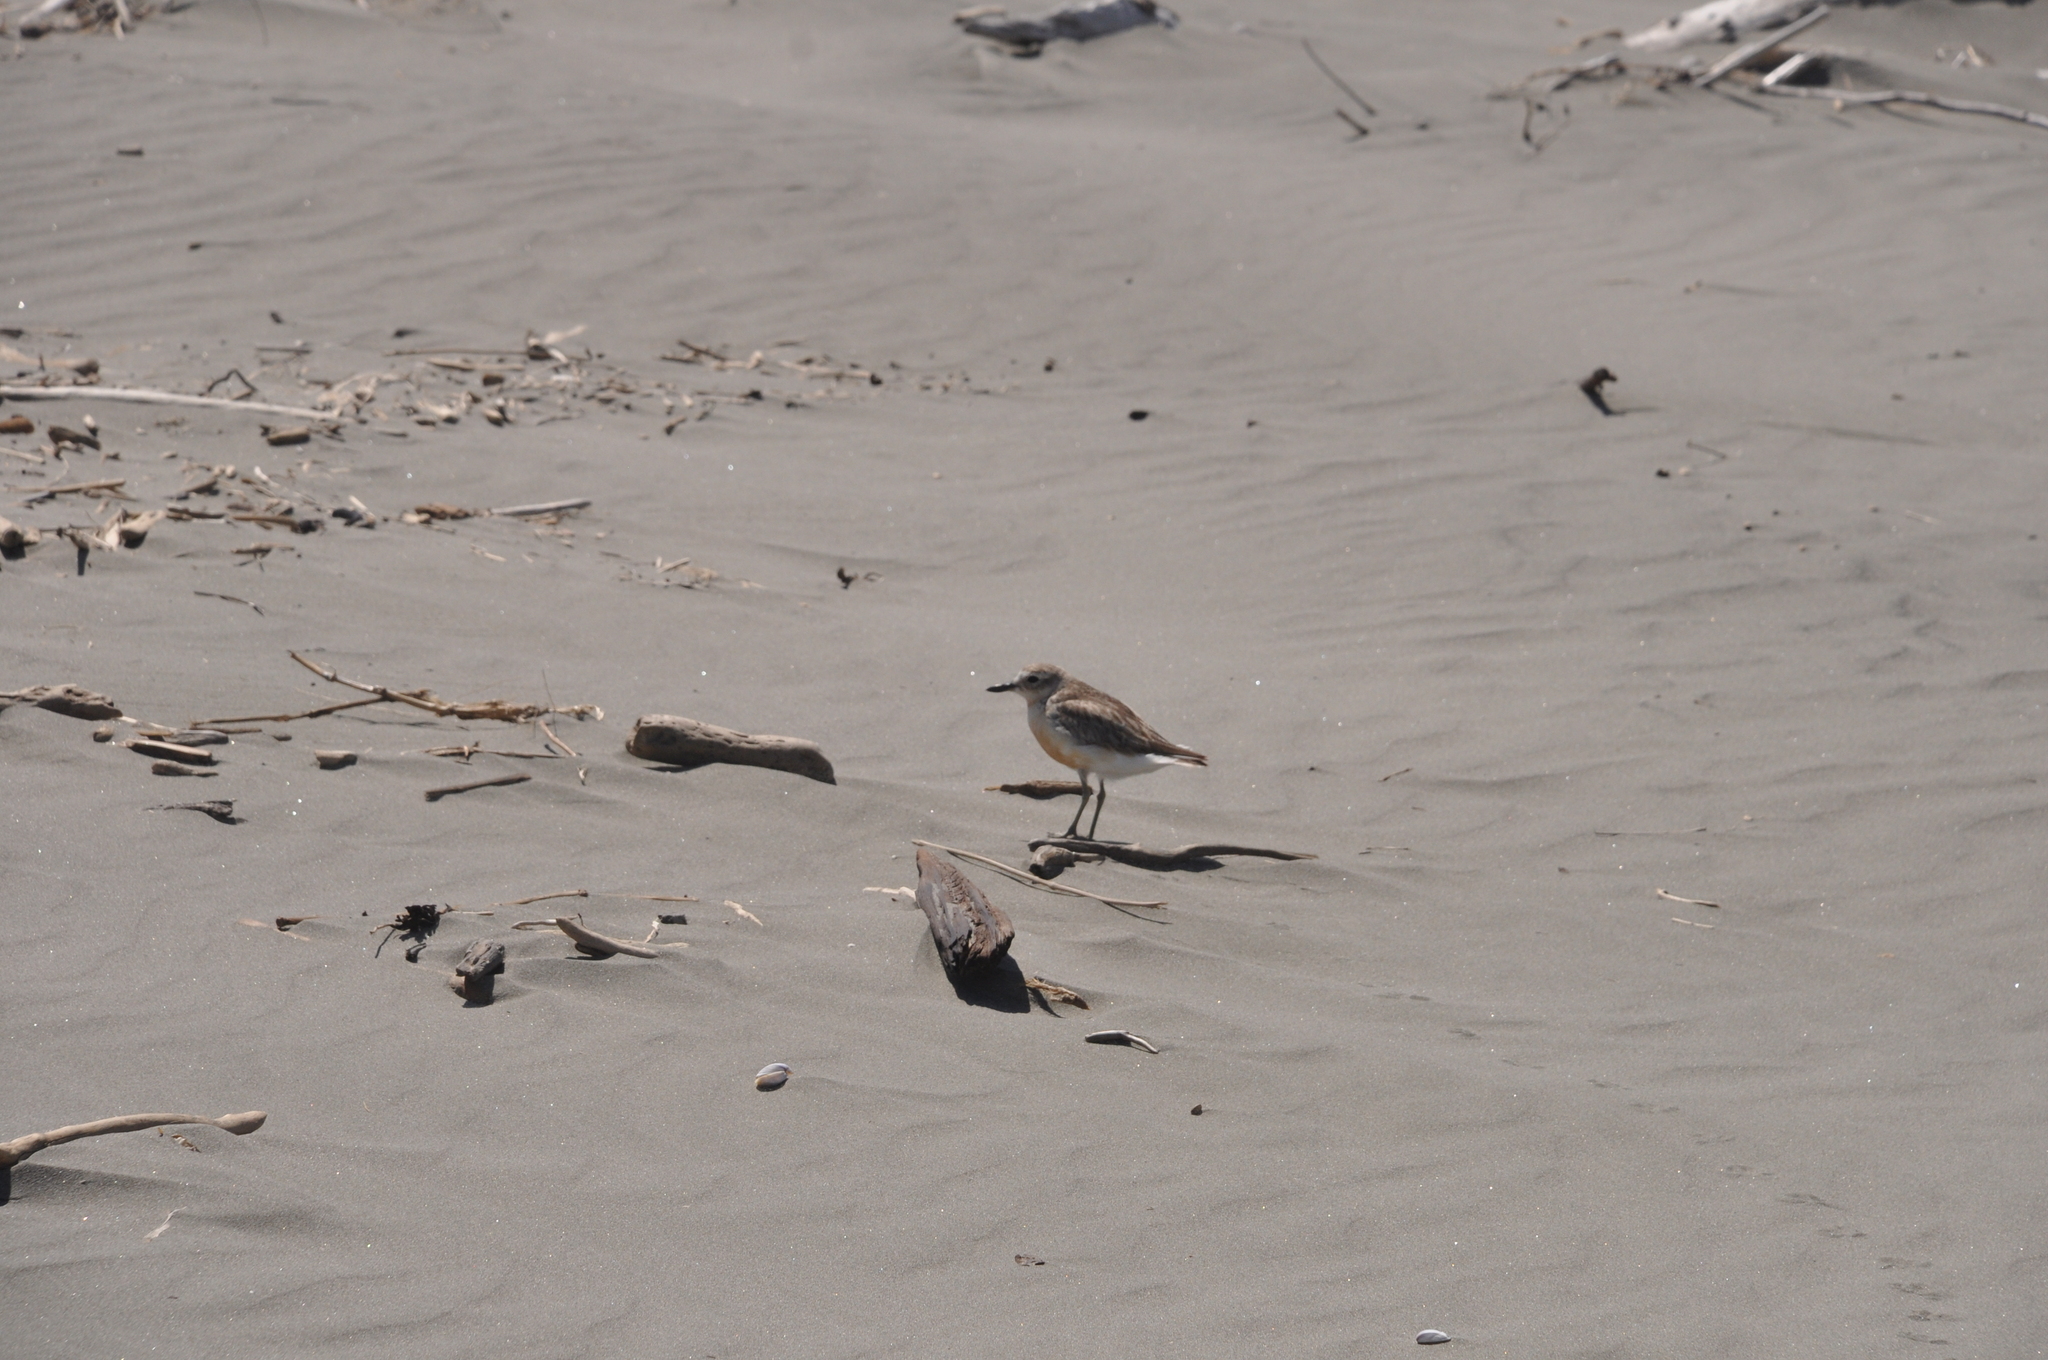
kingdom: Animalia
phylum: Chordata
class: Aves
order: Charadriiformes
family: Charadriidae
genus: Anarhynchus
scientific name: Anarhynchus
